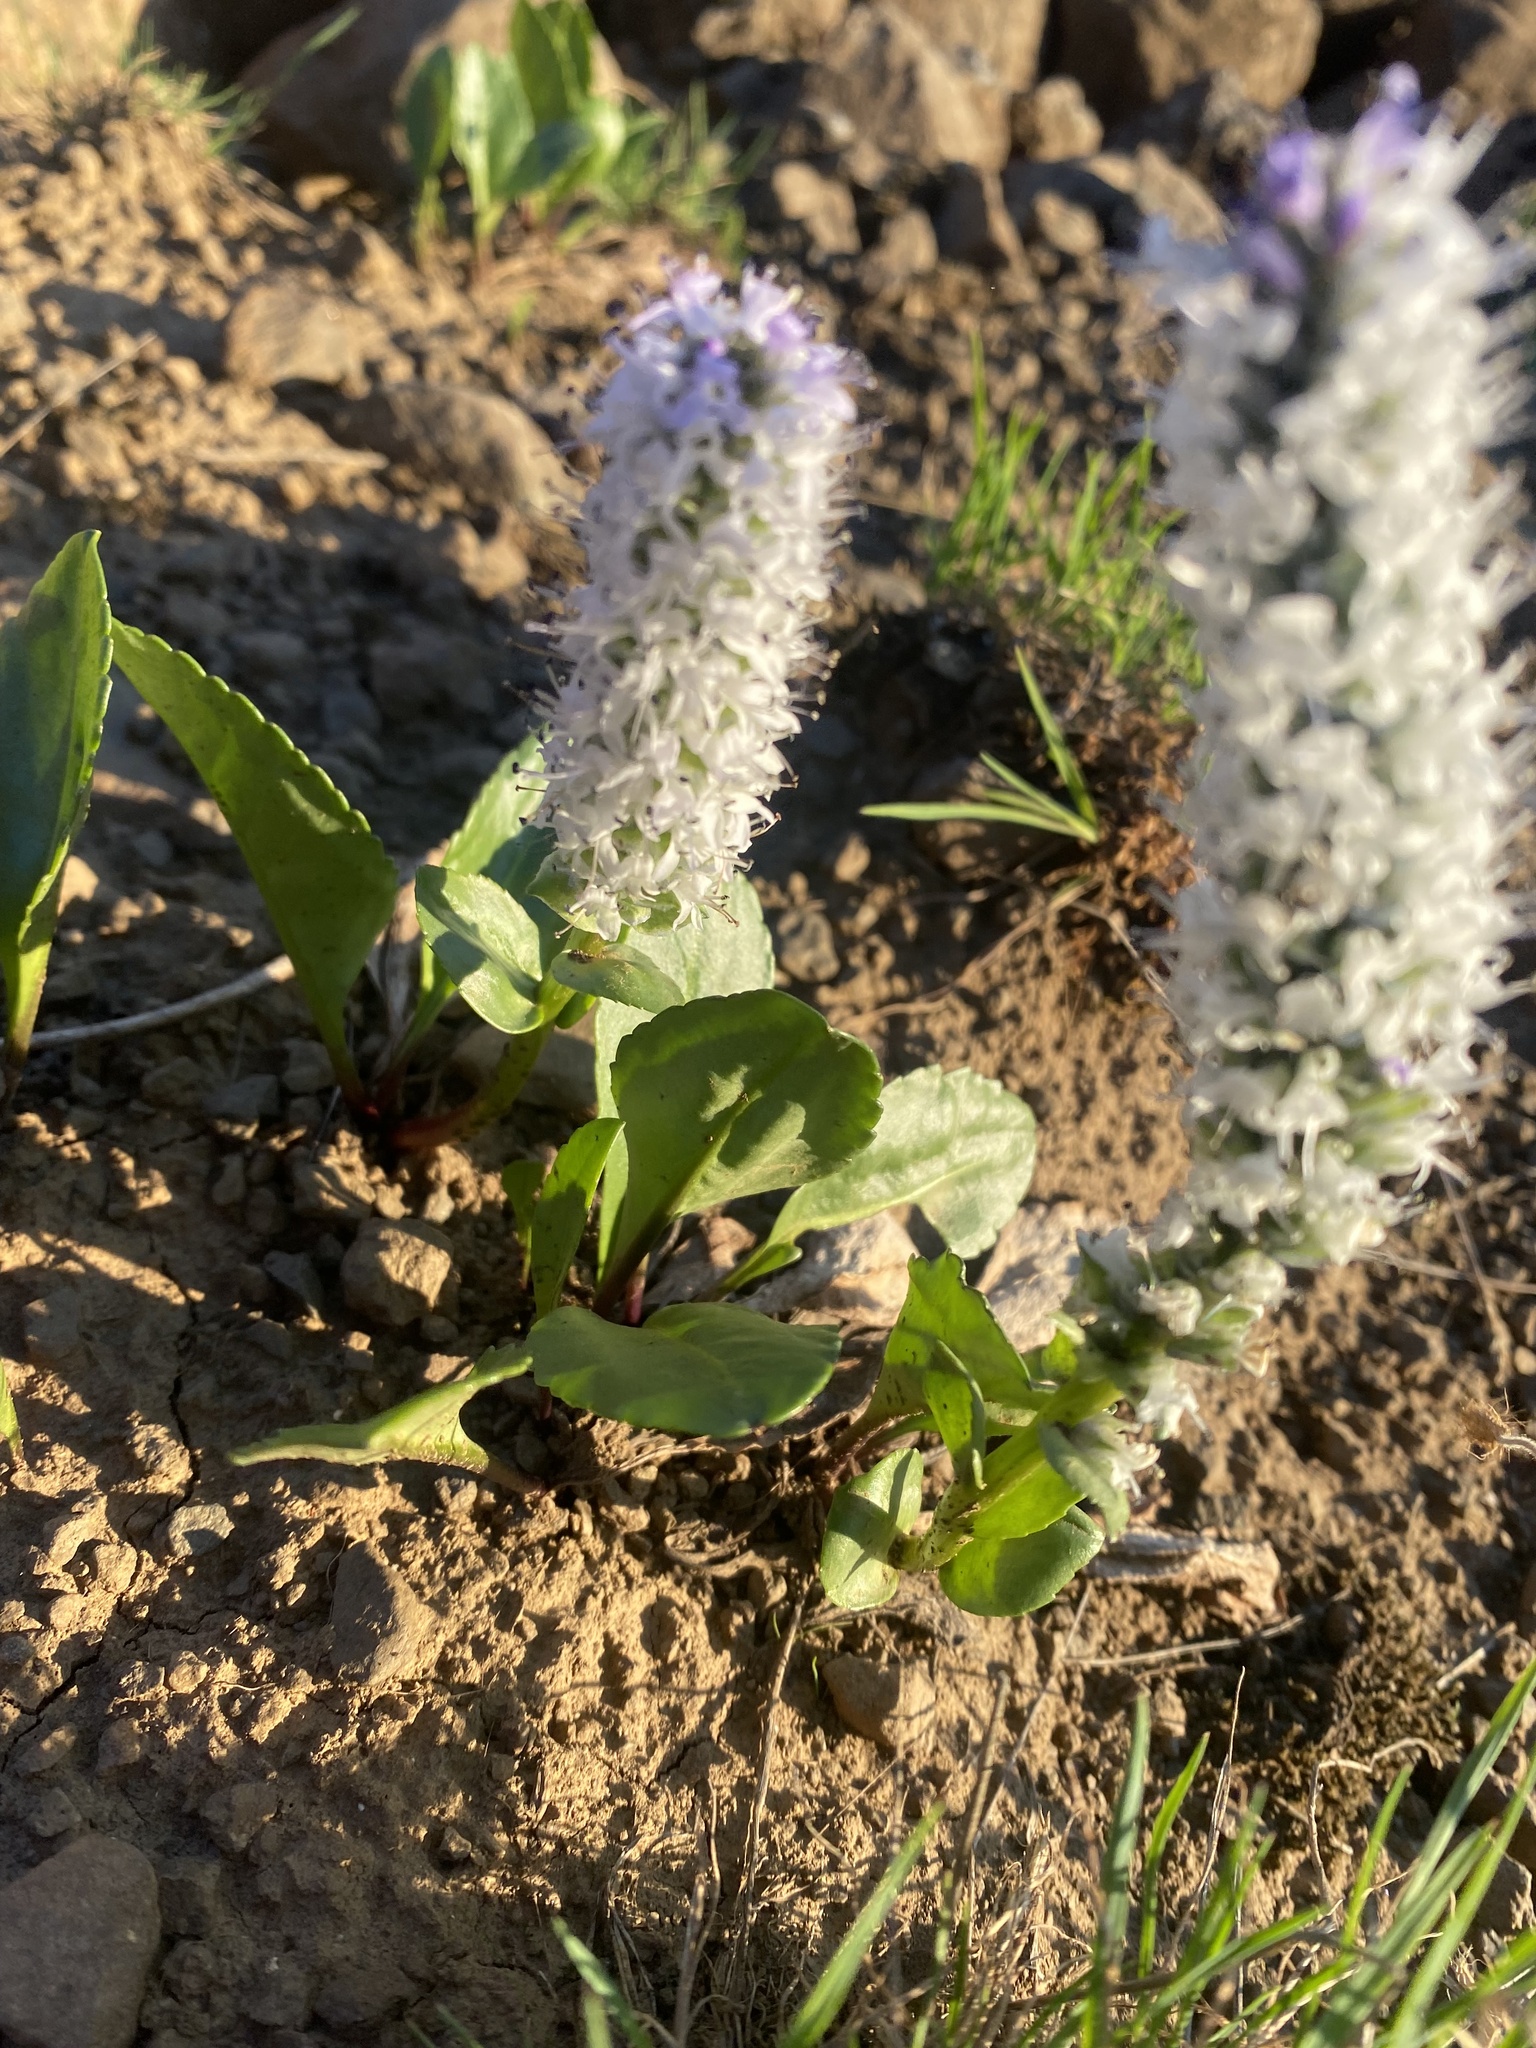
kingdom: Plantae
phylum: Tracheophyta
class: Magnoliopsida
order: Lamiales
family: Plantaginaceae
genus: Lagotis
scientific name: Lagotis glauca
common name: Glaucous weaselsnout
